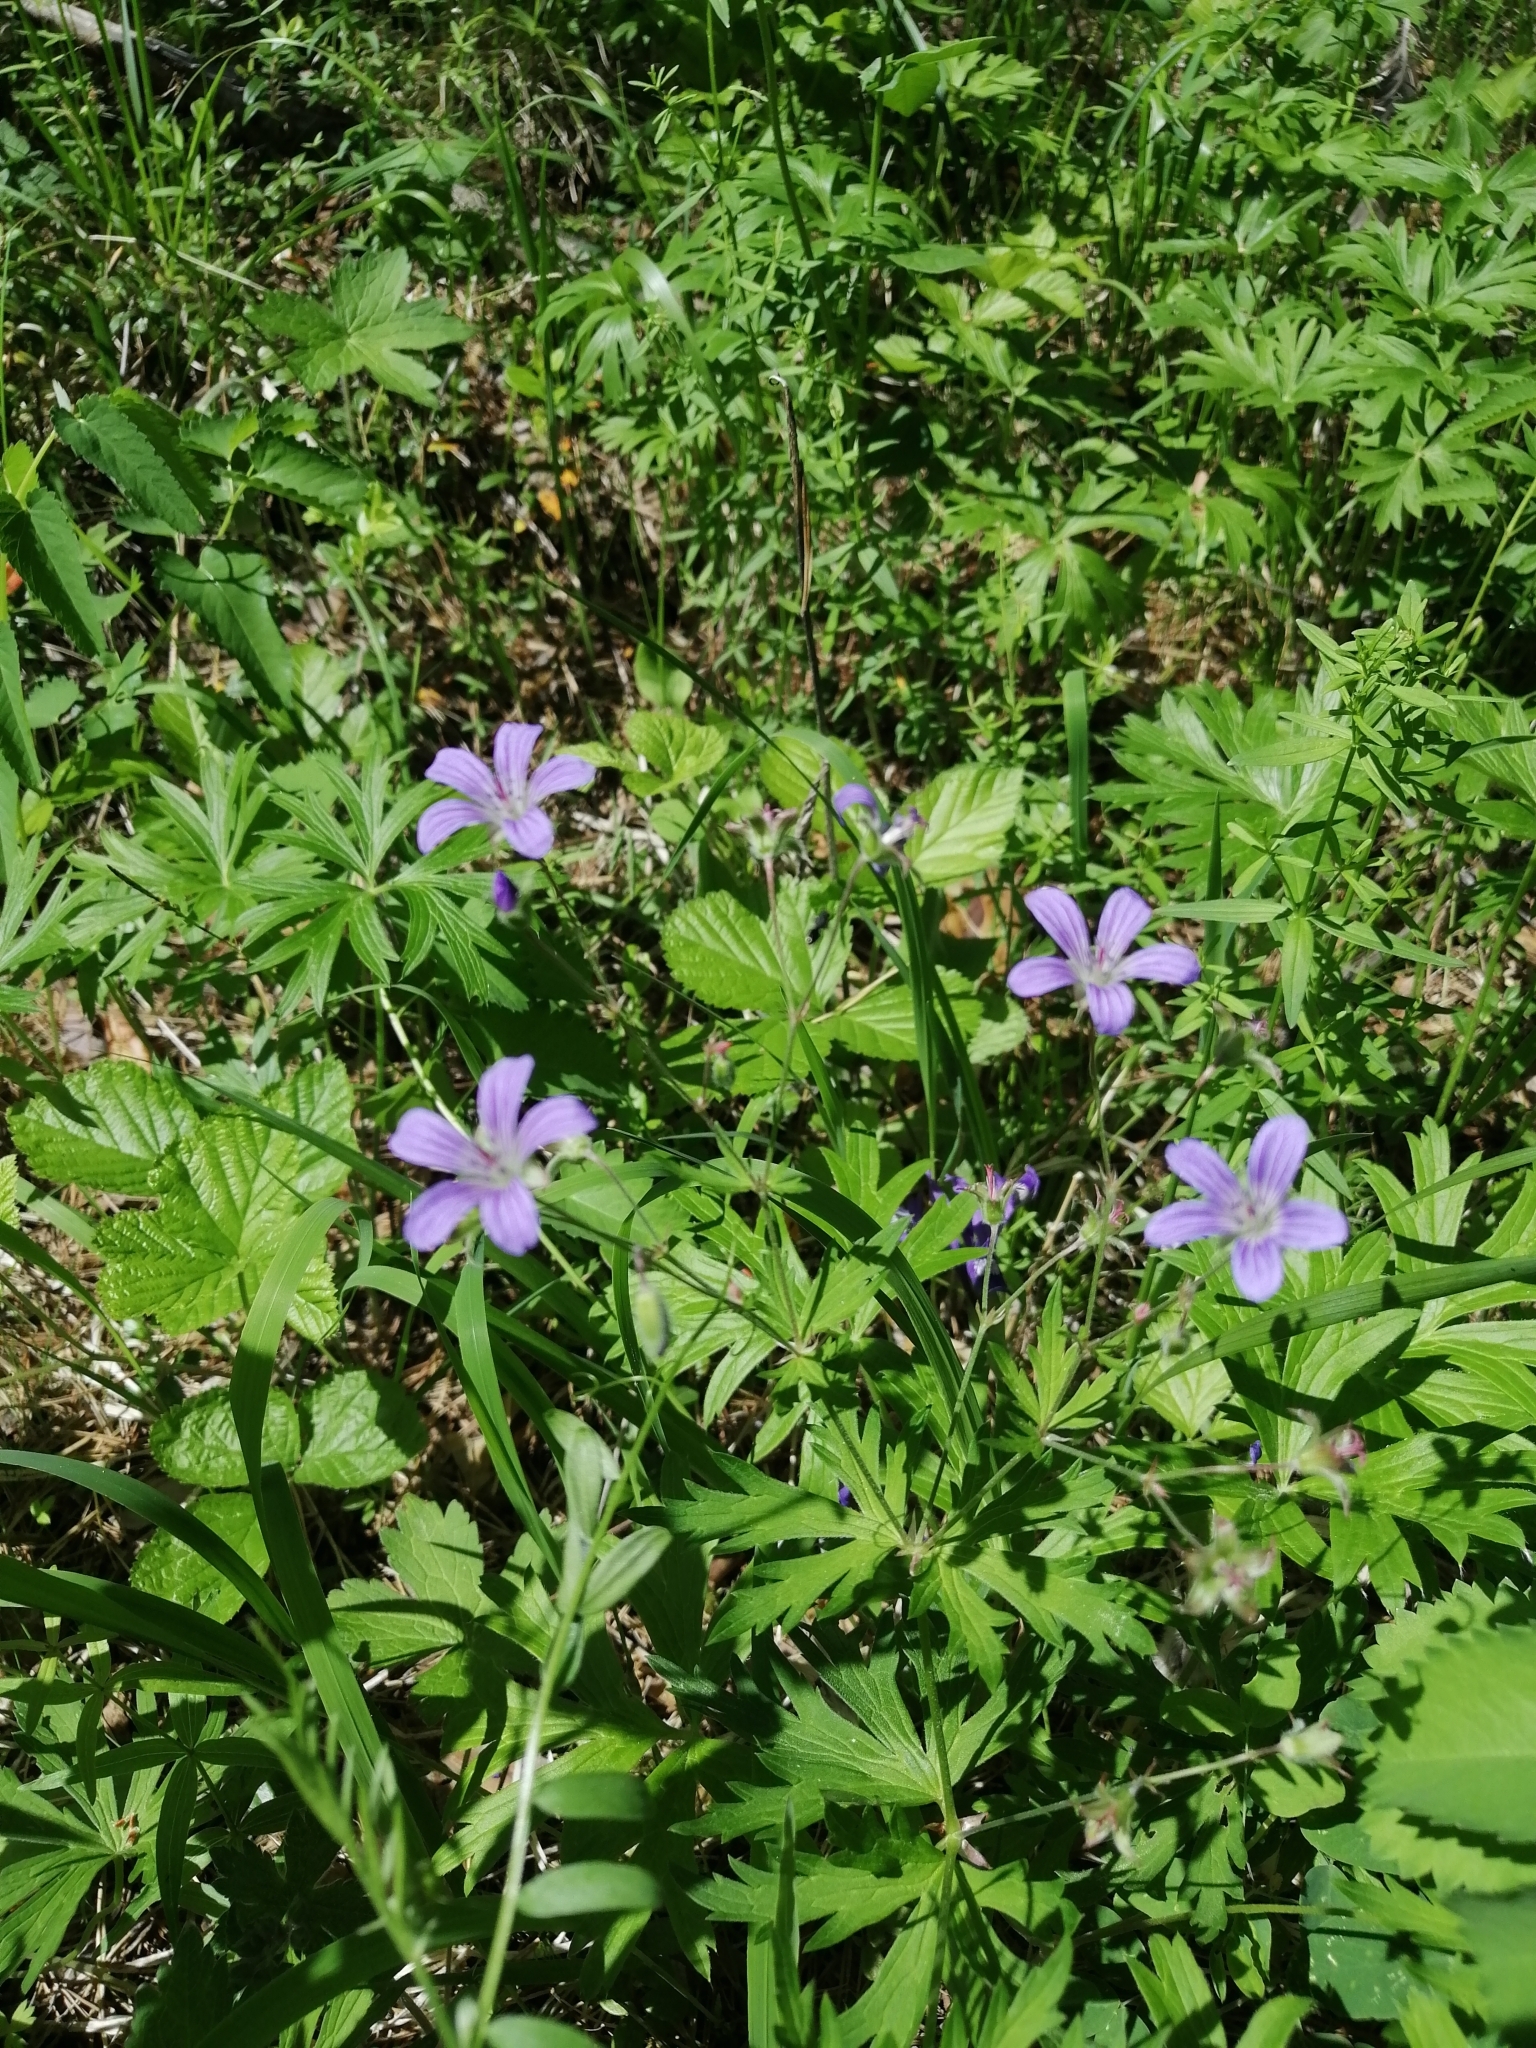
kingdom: Plantae
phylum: Tracheophyta
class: Magnoliopsida
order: Geraniales
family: Geraniaceae
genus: Geranium
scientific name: Geranium pseudosibiricum
